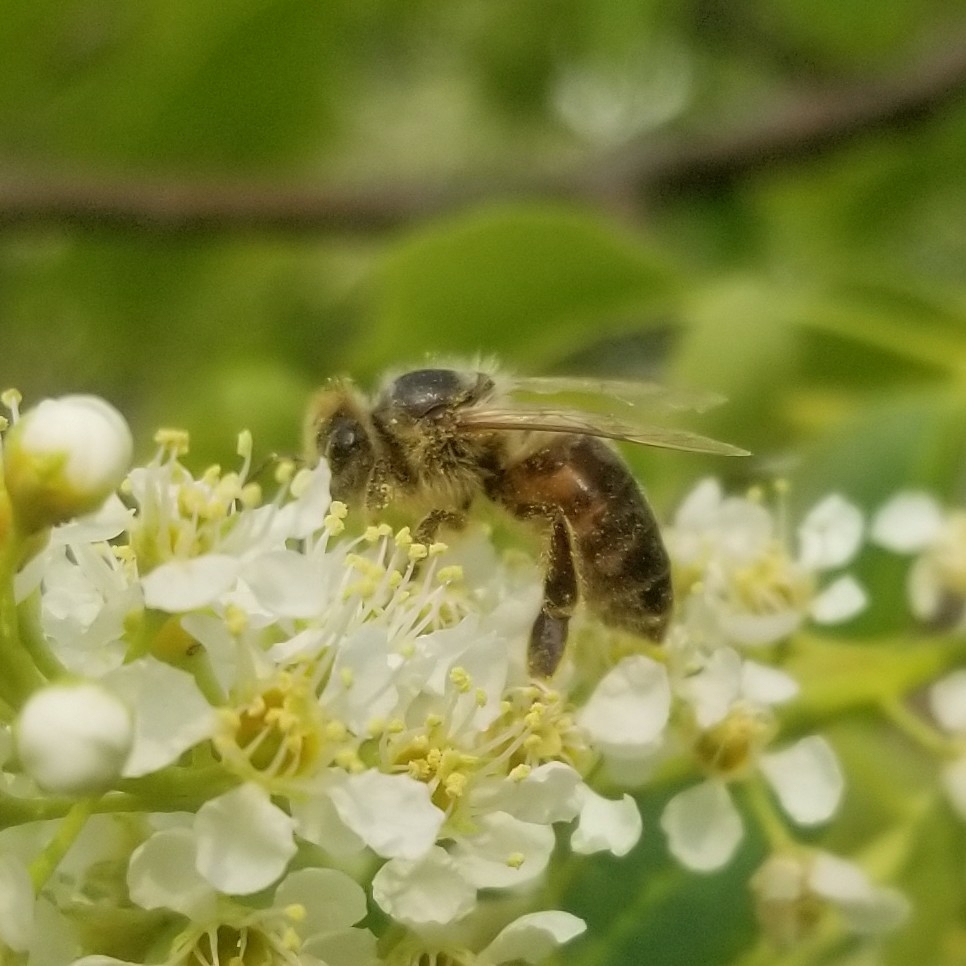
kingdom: Animalia
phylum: Arthropoda
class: Insecta
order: Hymenoptera
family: Apidae
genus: Apis
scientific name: Apis mellifera
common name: Honey bee
